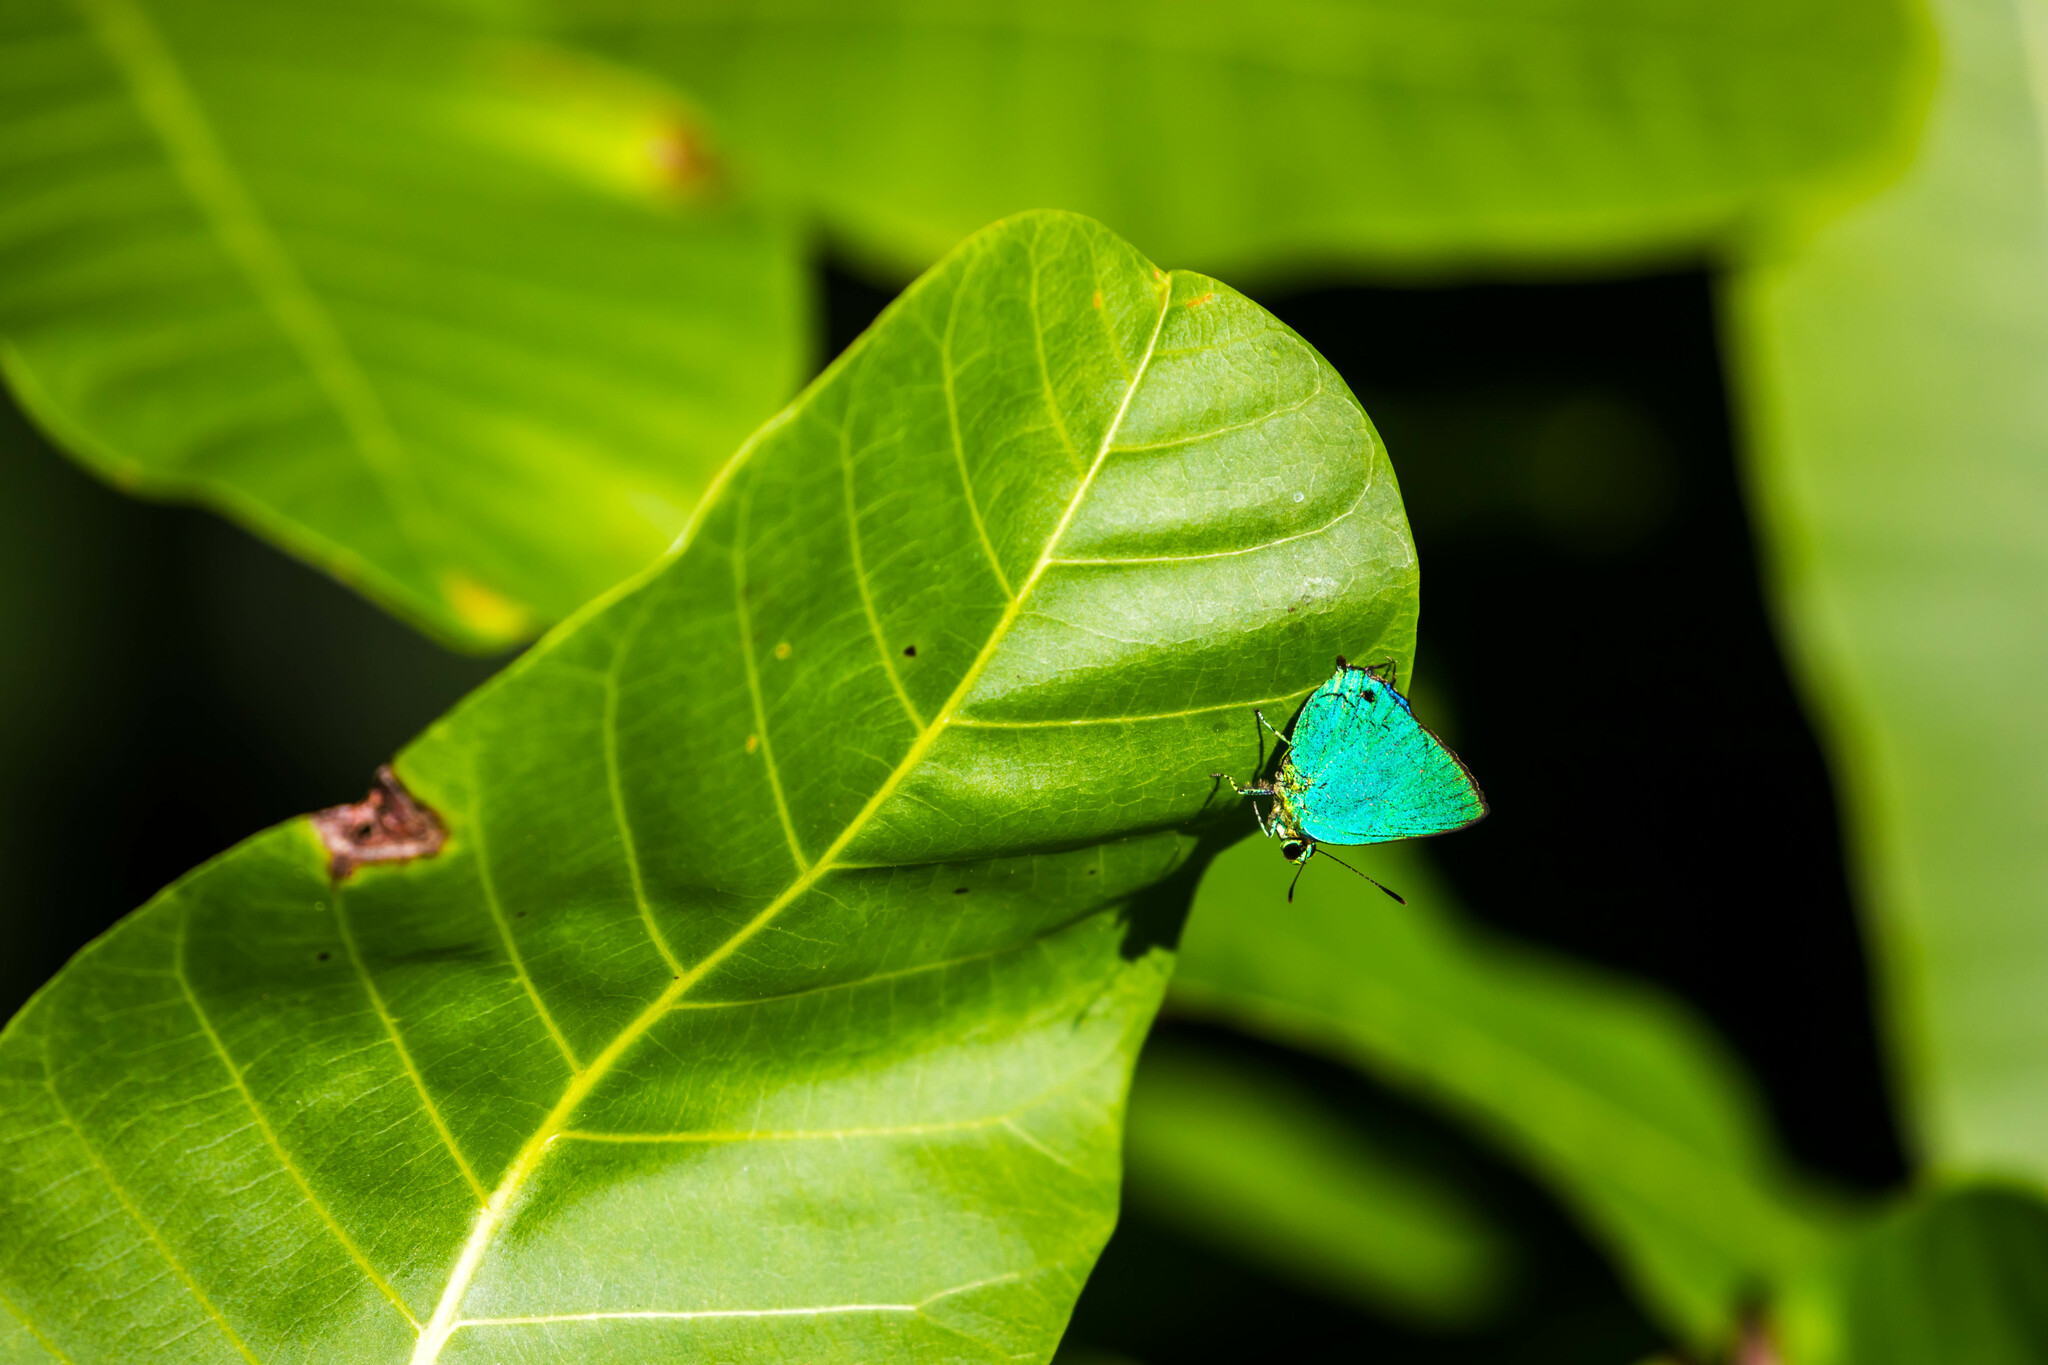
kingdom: Animalia
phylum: Arthropoda
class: Insecta
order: Lepidoptera
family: Lycaenidae
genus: Chalybs
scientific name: Chalybs cecina
